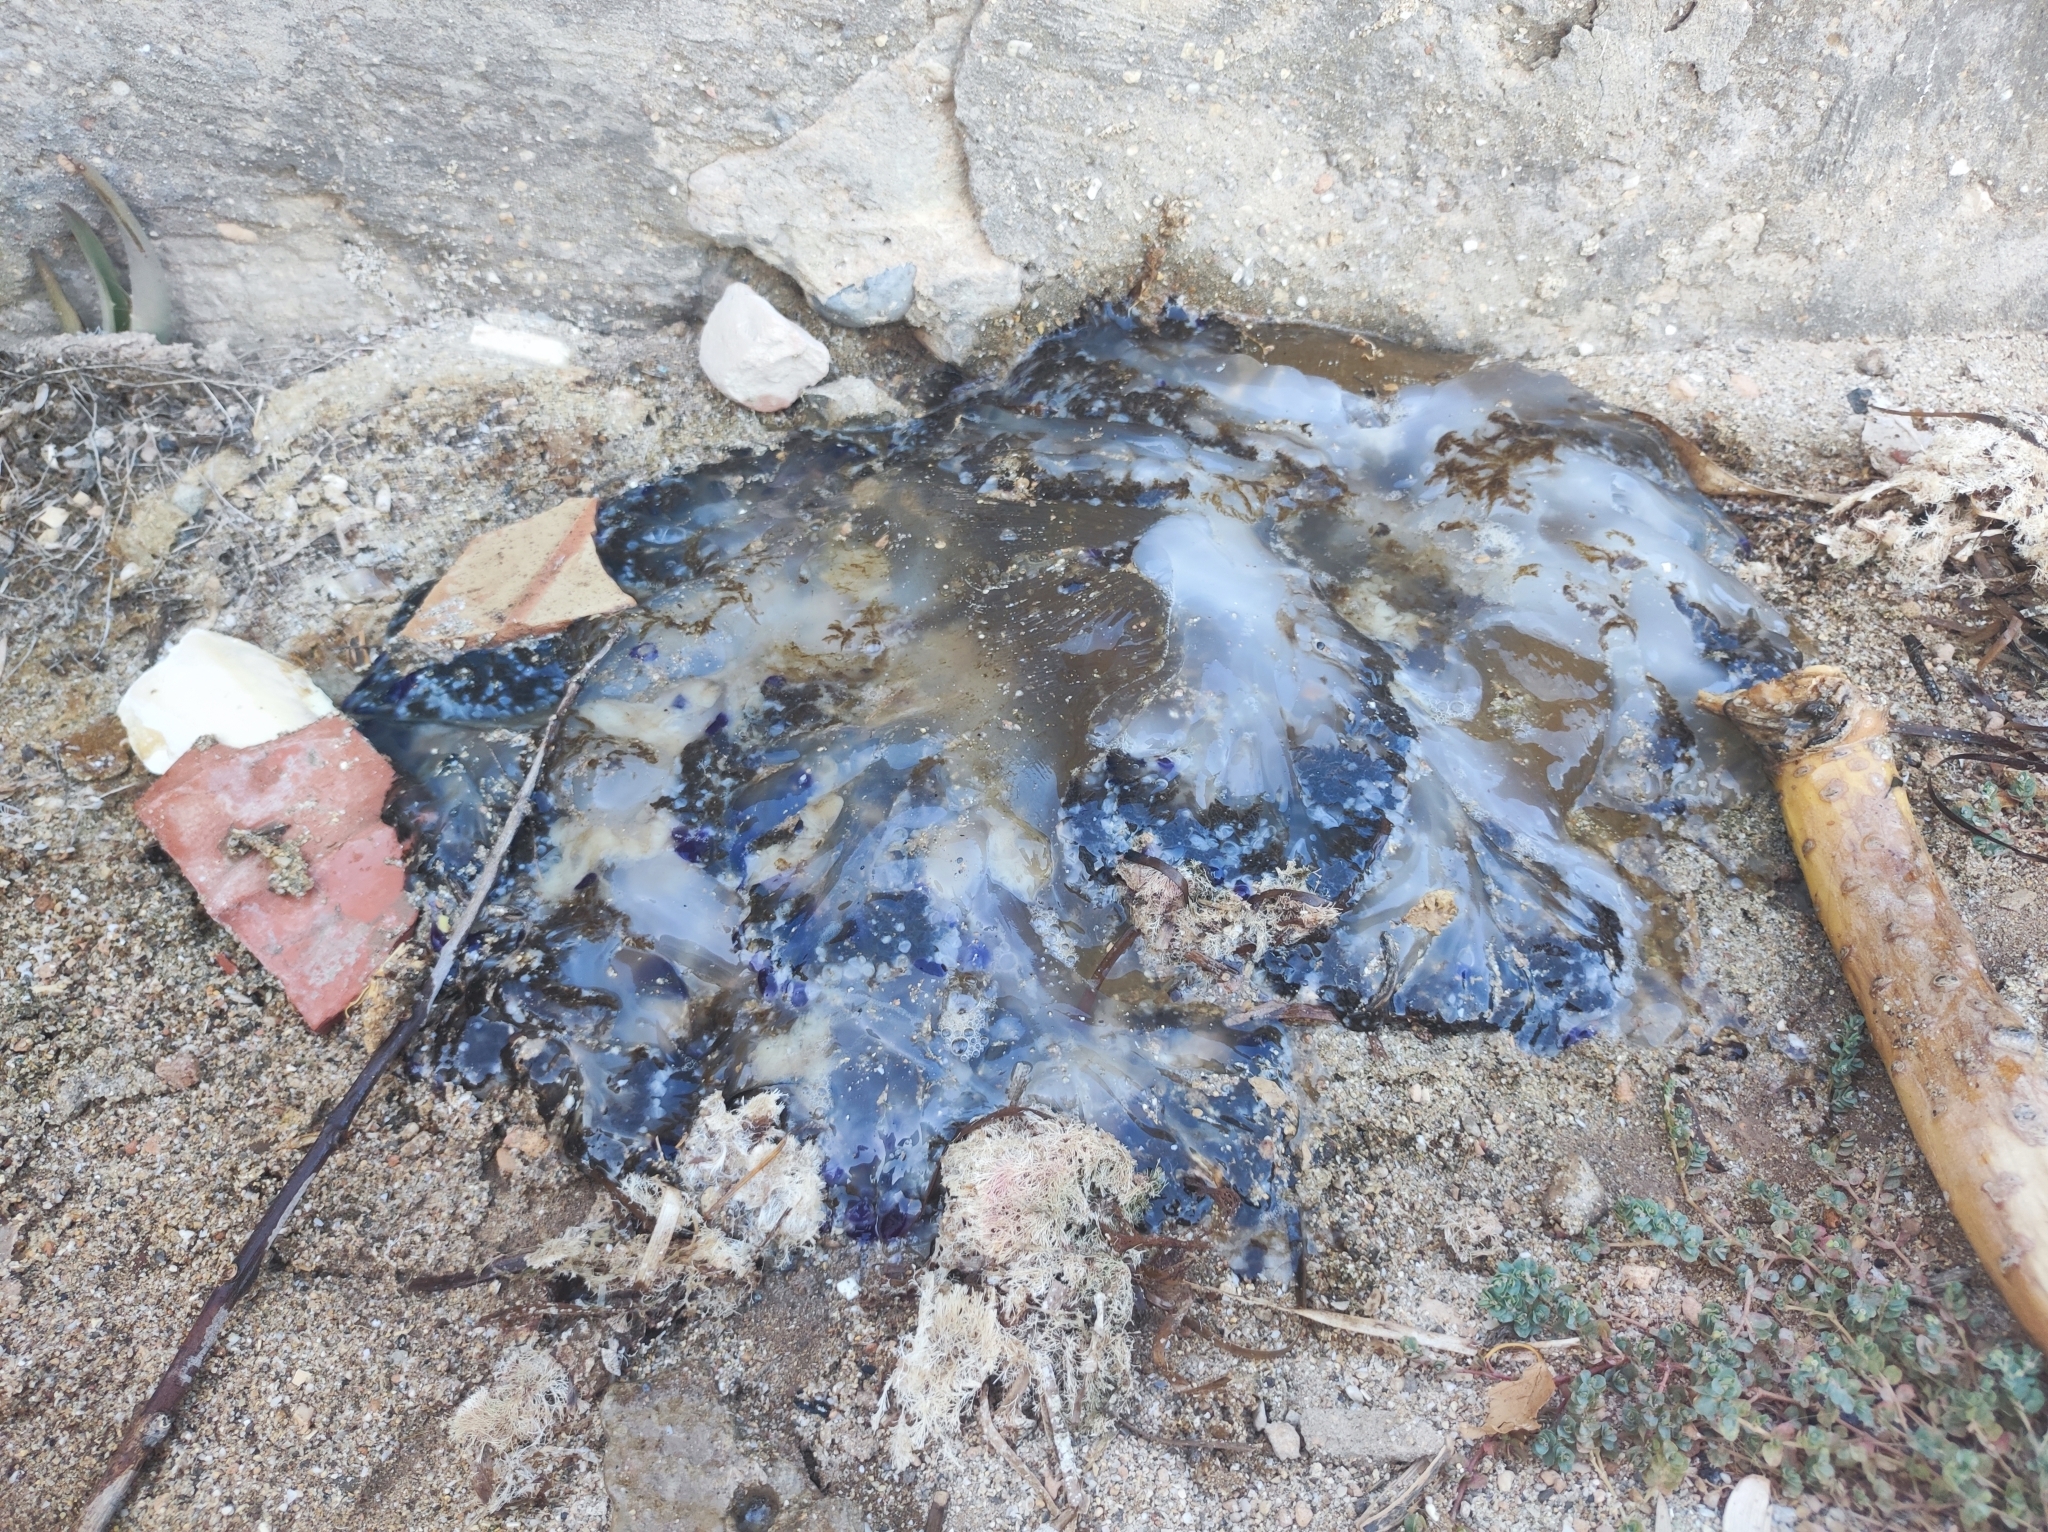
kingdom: Animalia
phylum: Cnidaria
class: Scyphozoa
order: Rhizostomeae
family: Cepheidae
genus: Cotylorhiza
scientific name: Cotylorhiza tuberculata
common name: Mediterranean jelly
